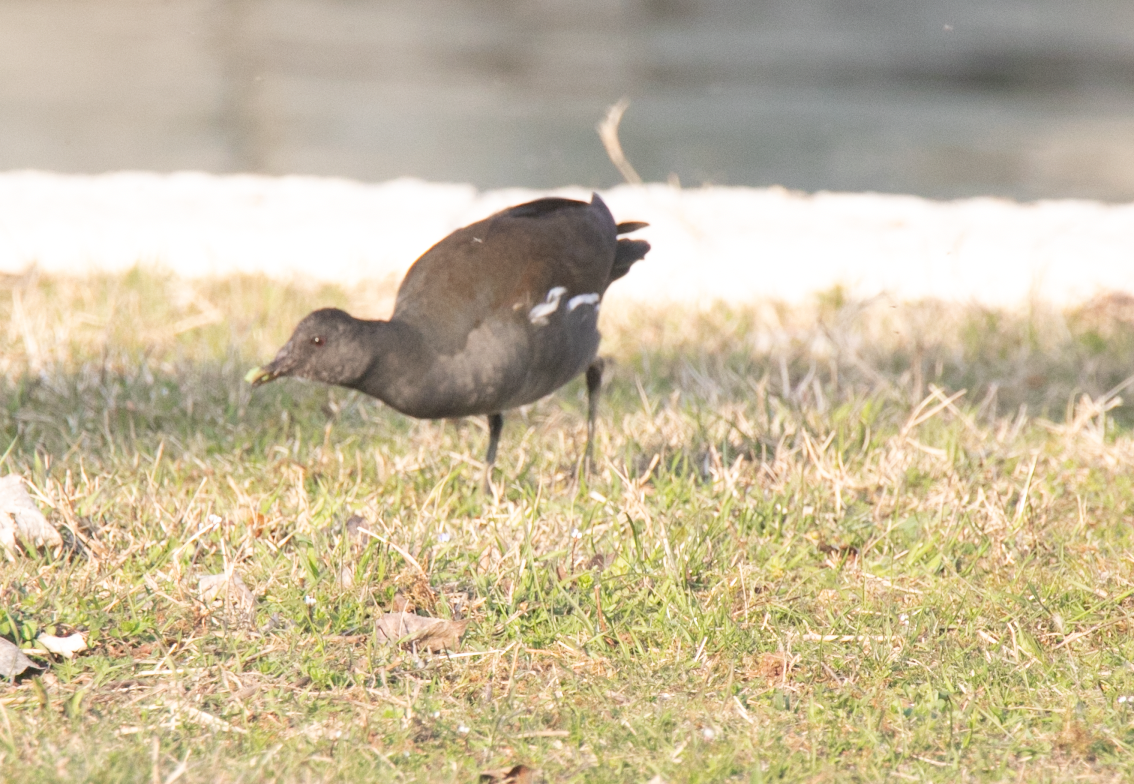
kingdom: Animalia
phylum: Chordata
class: Aves
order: Gruiformes
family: Rallidae
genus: Gallinula
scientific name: Gallinula chloropus
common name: Common moorhen
